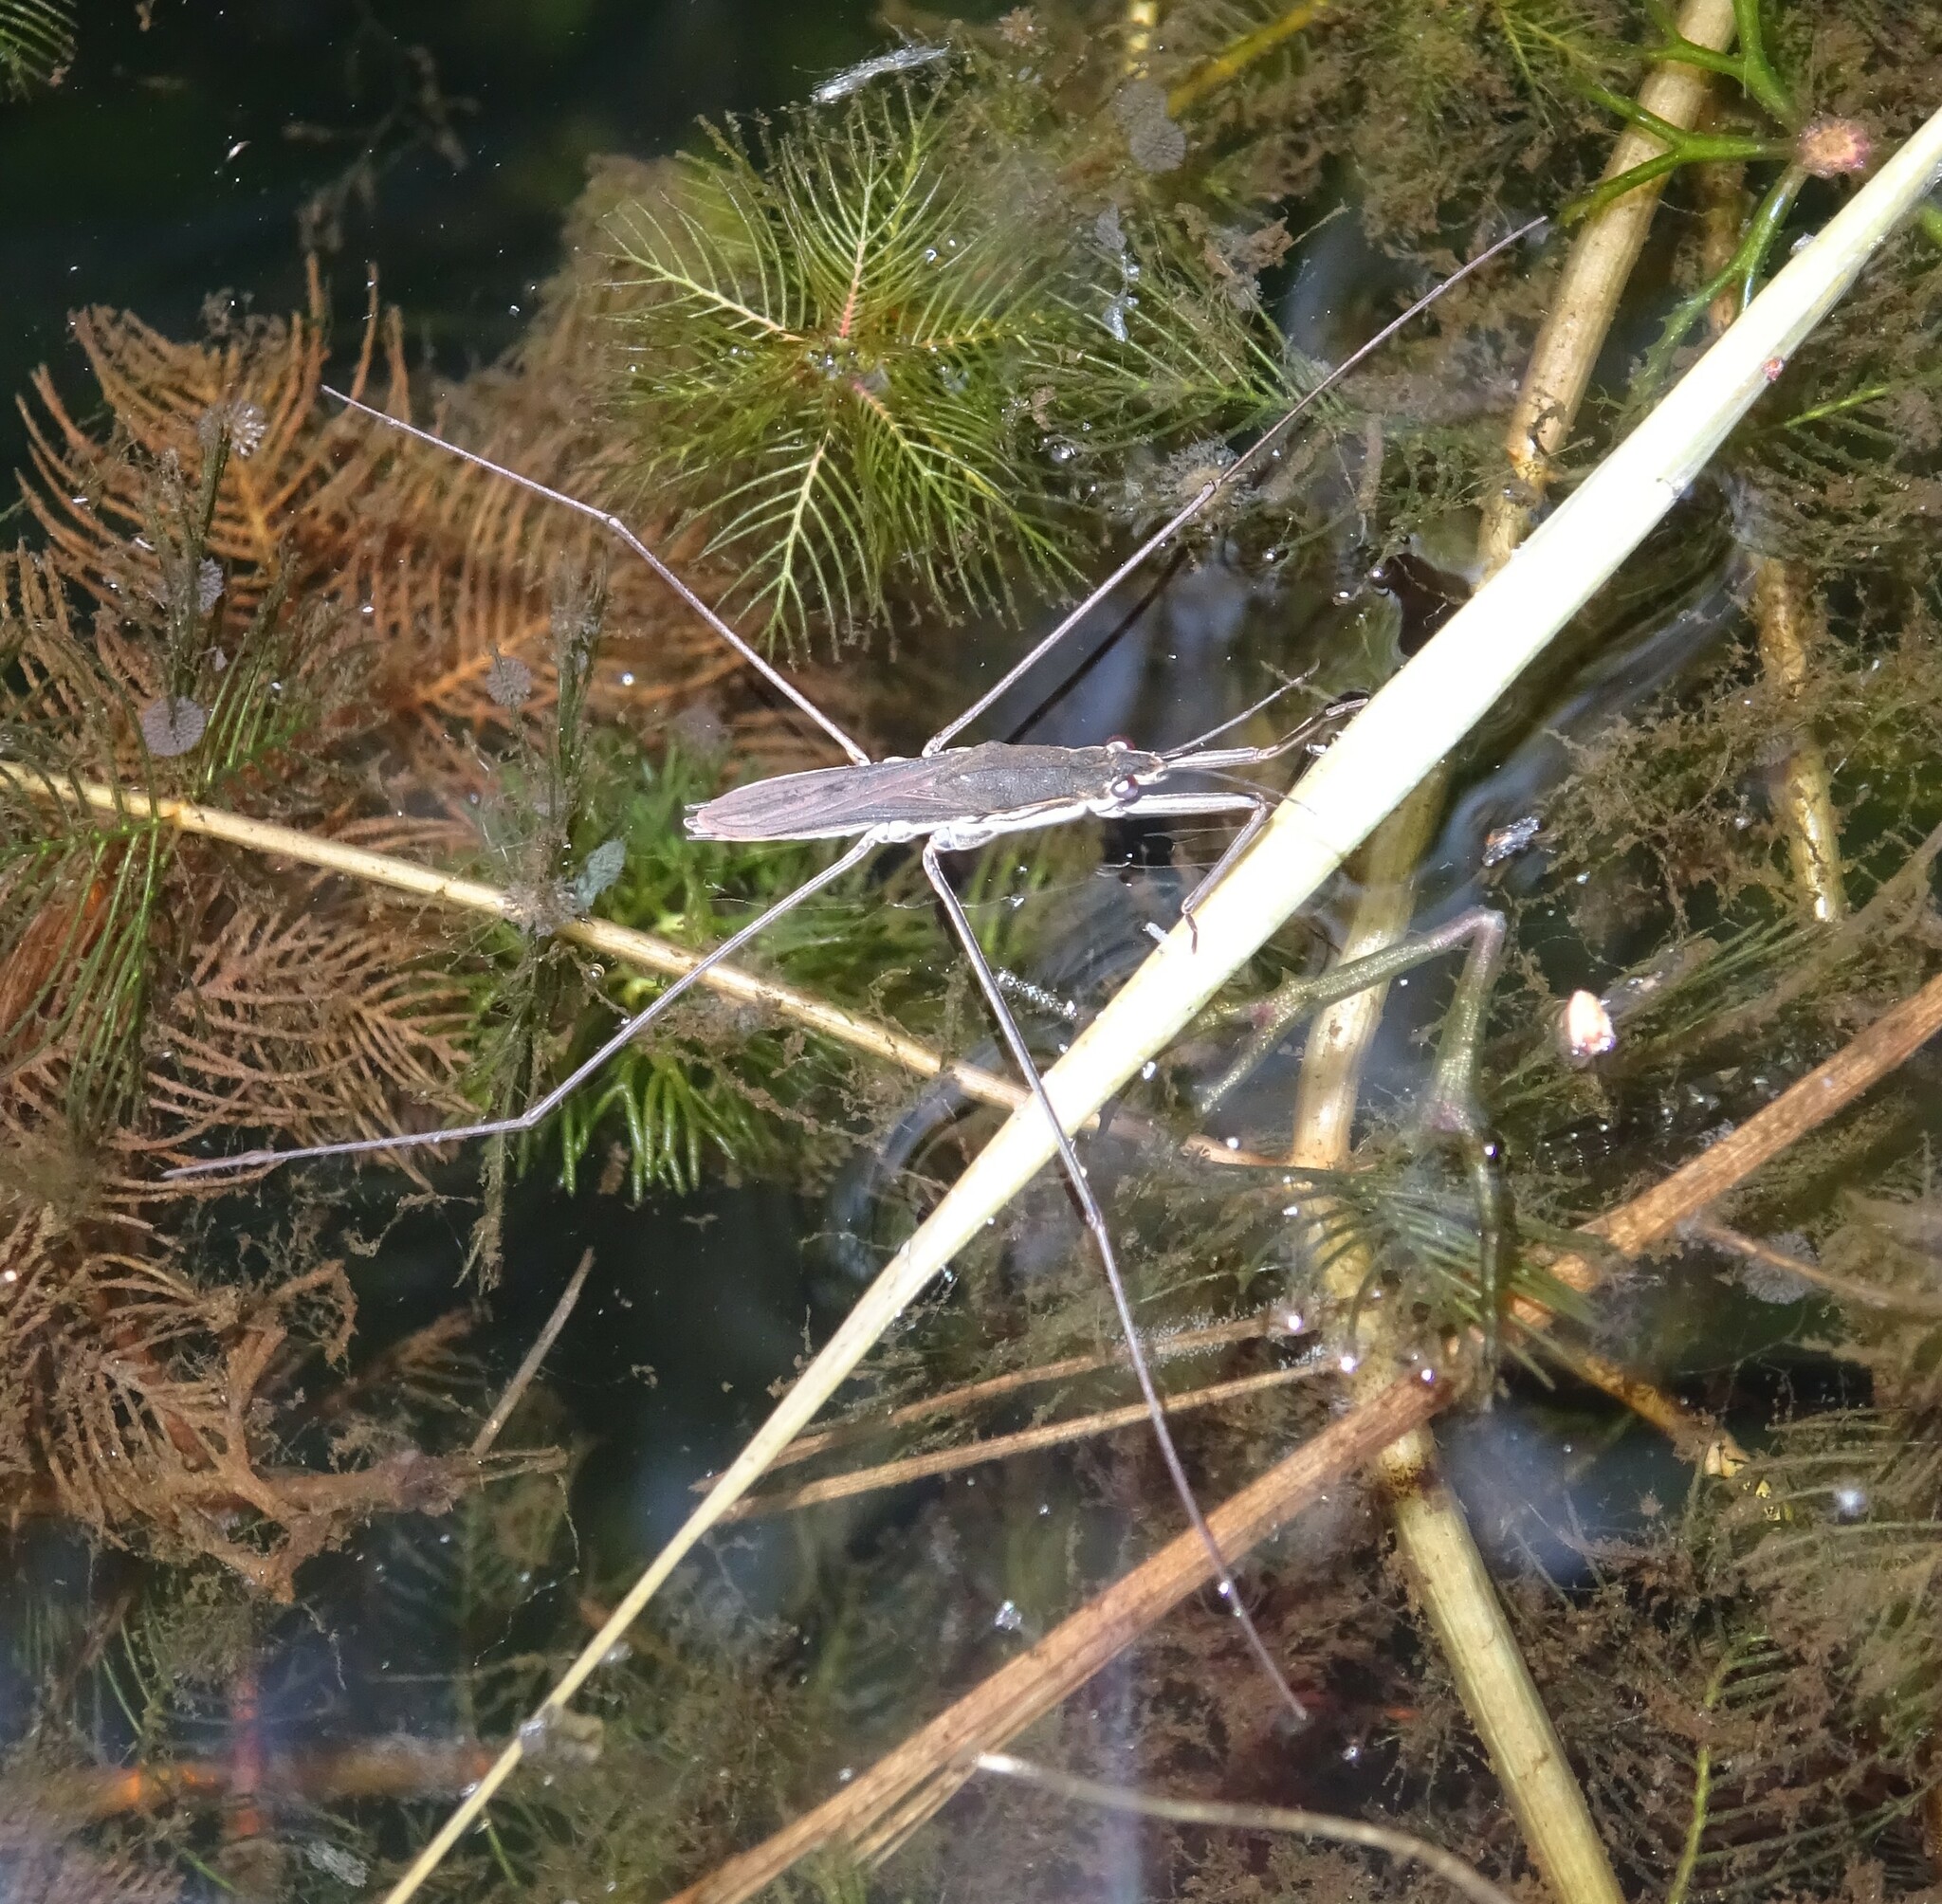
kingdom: Animalia
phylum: Arthropoda
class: Insecta
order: Hemiptera
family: Gerridae
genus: Aquarius
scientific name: Aquarius paludum
